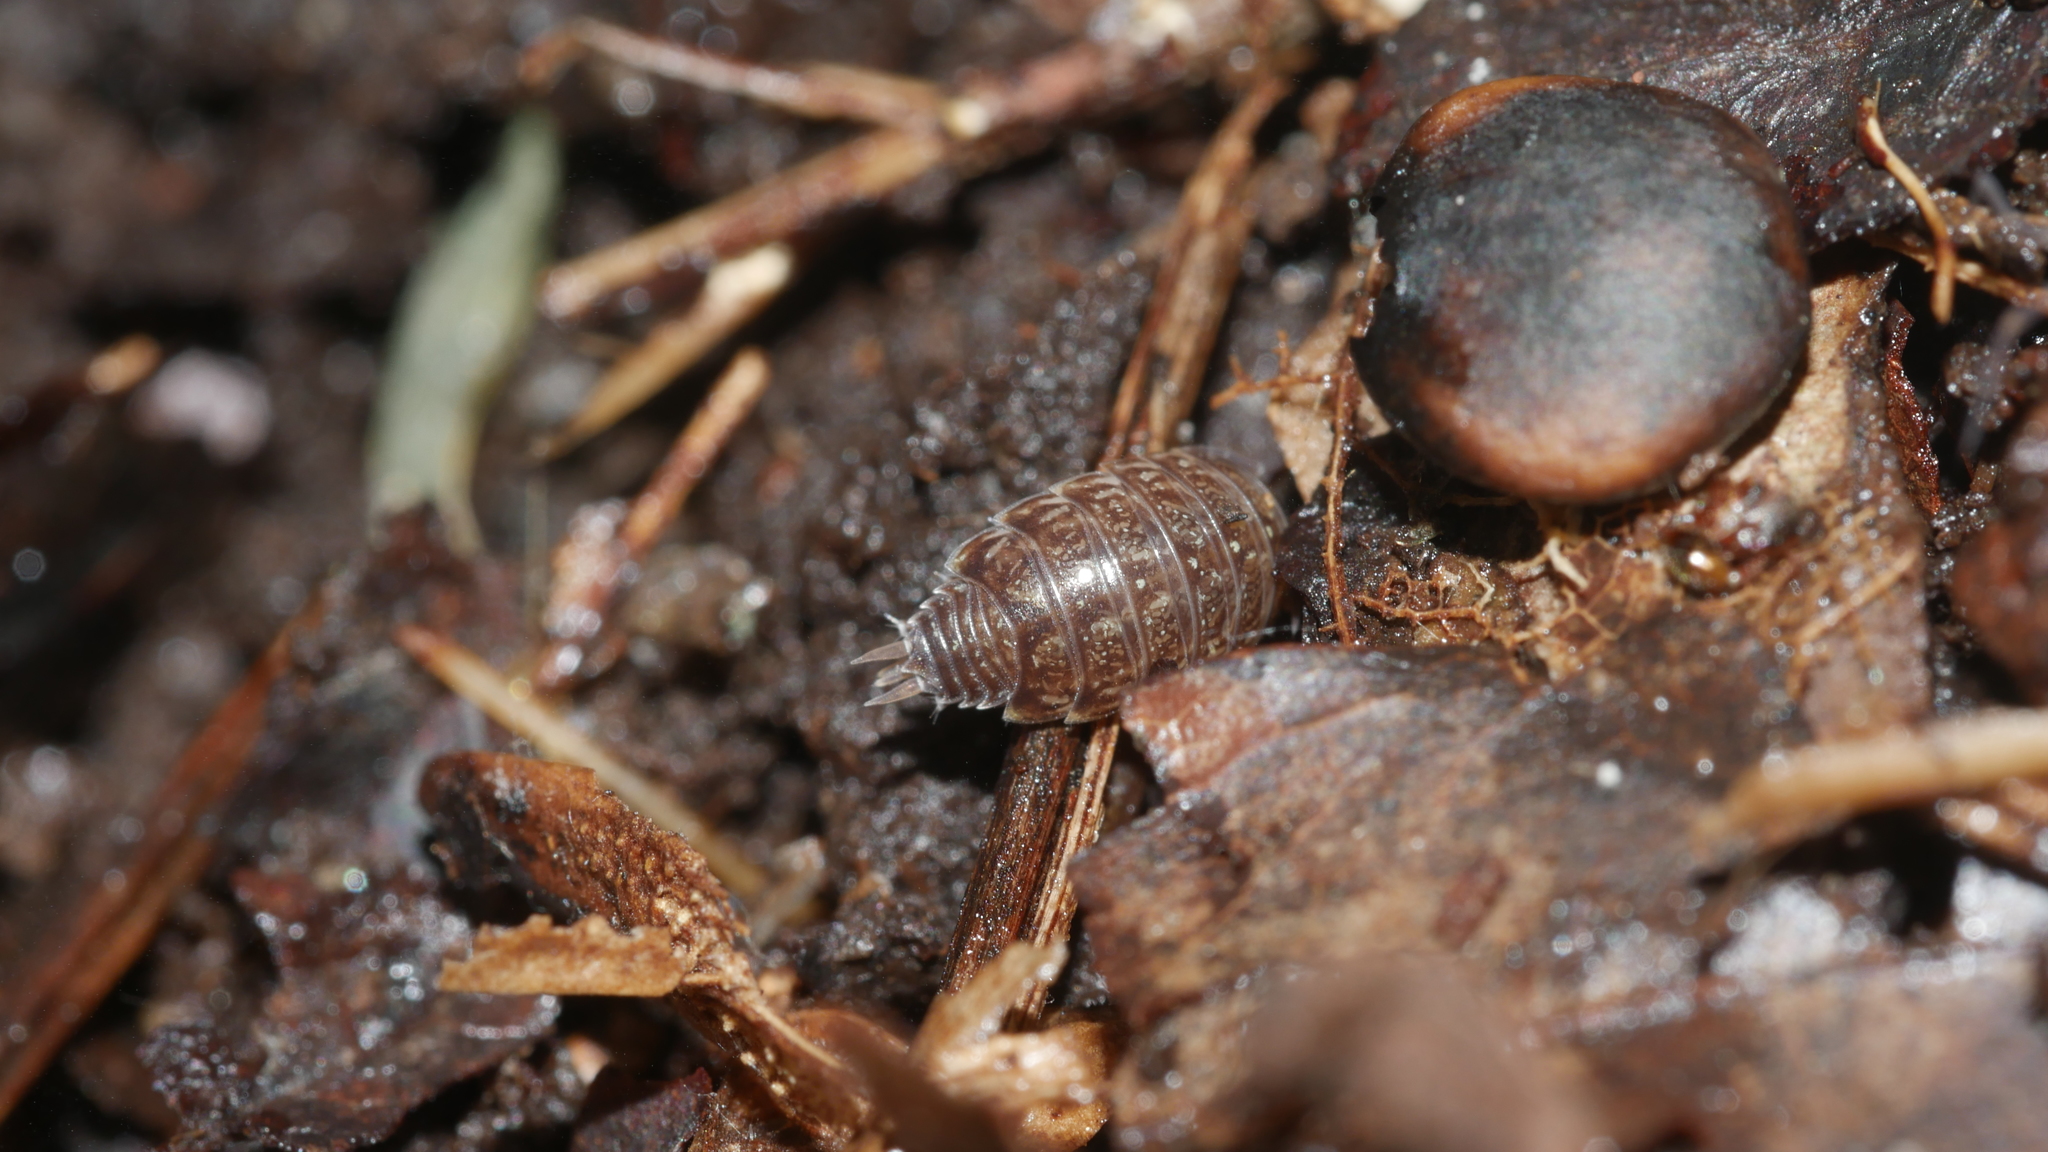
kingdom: Animalia
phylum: Arthropoda
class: Malacostraca
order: Isopoda
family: Philosciidae
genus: Philoscia
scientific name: Philoscia muscorum
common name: Common striped woodlouse
